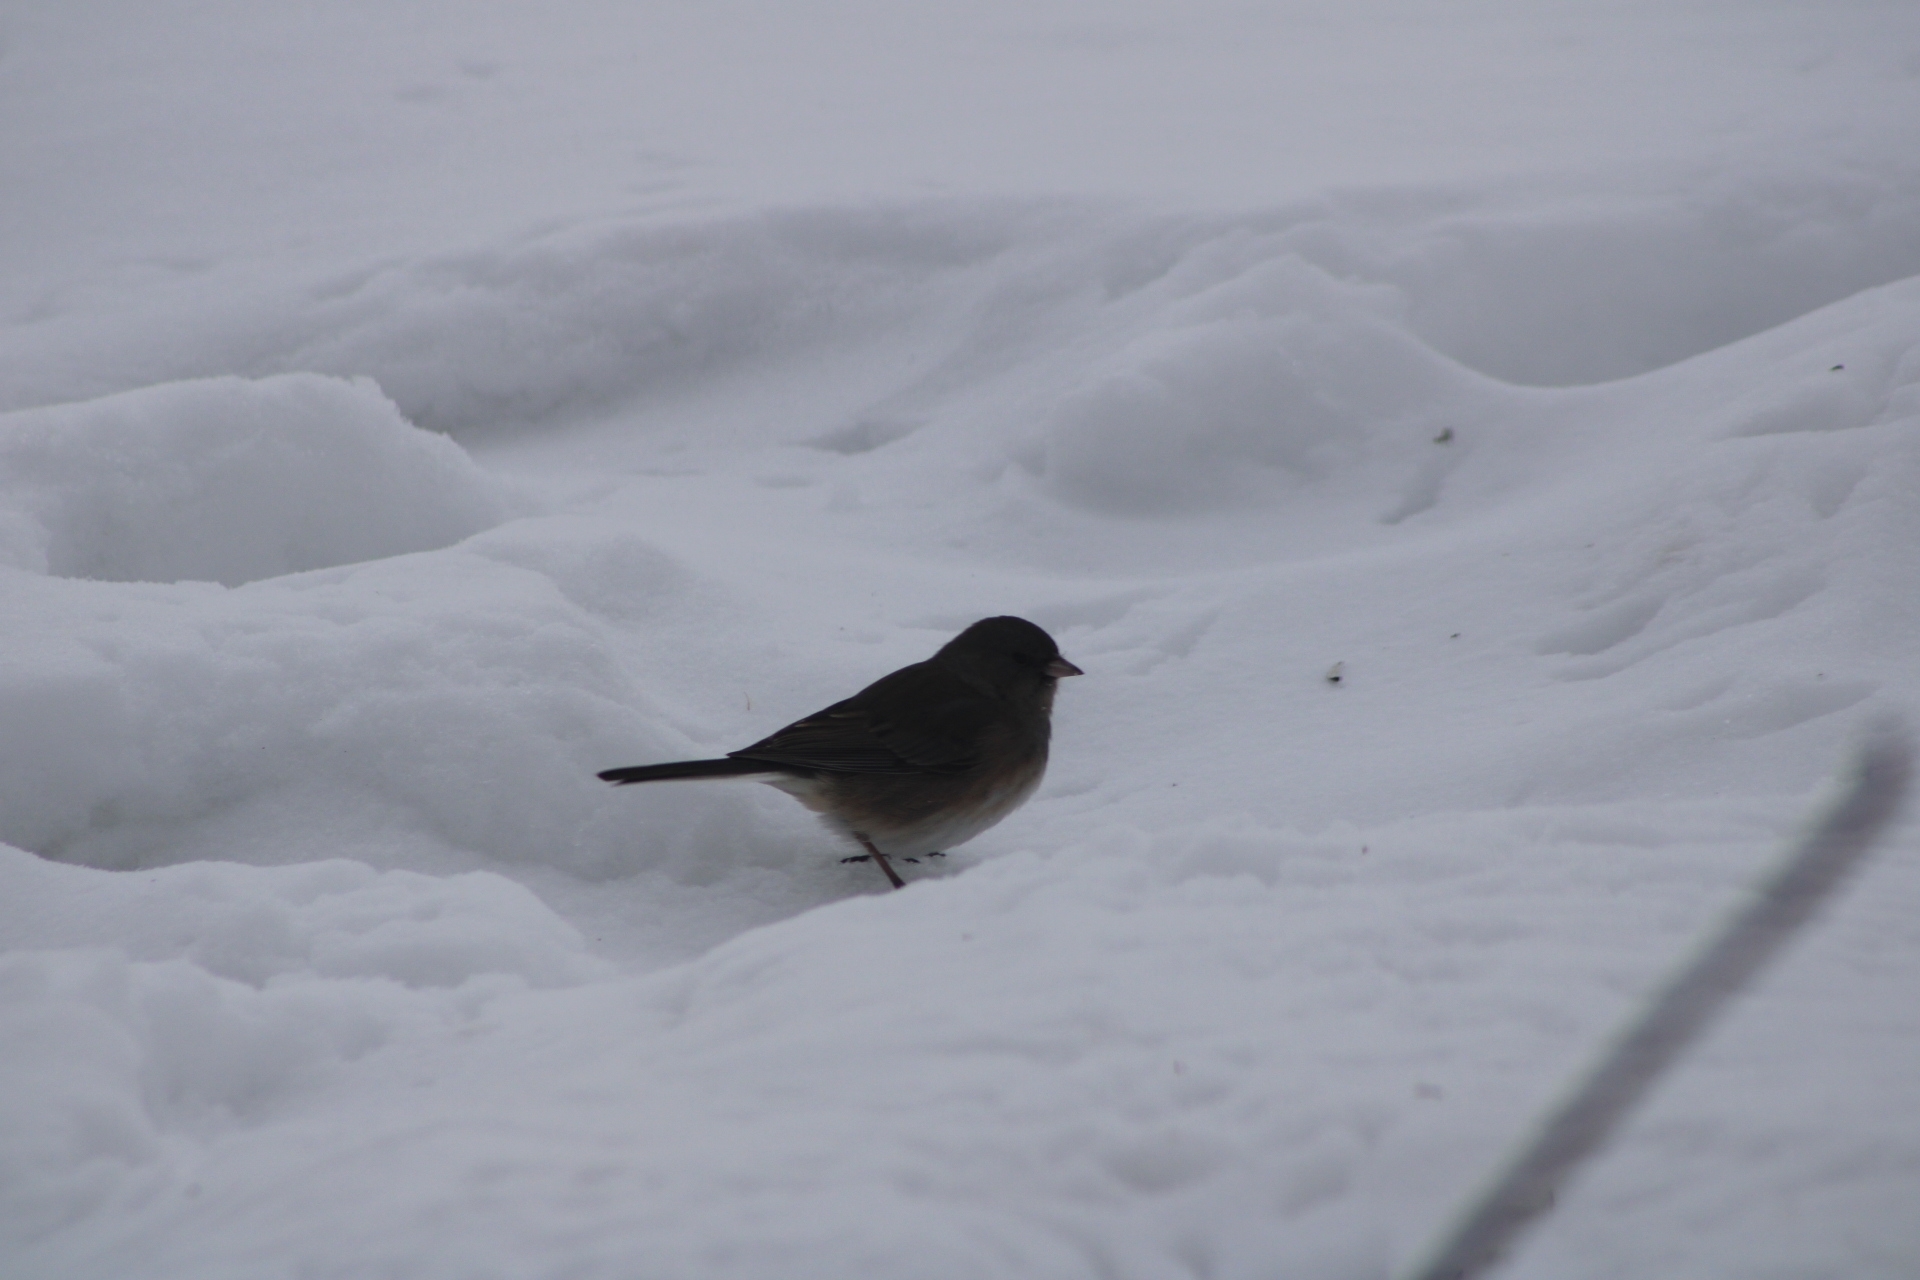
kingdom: Animalia
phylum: Chordata
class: Aves
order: Passeriformes
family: Passerellidae
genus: Junco
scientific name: Junco hyemalis
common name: Dark-eyed junco
